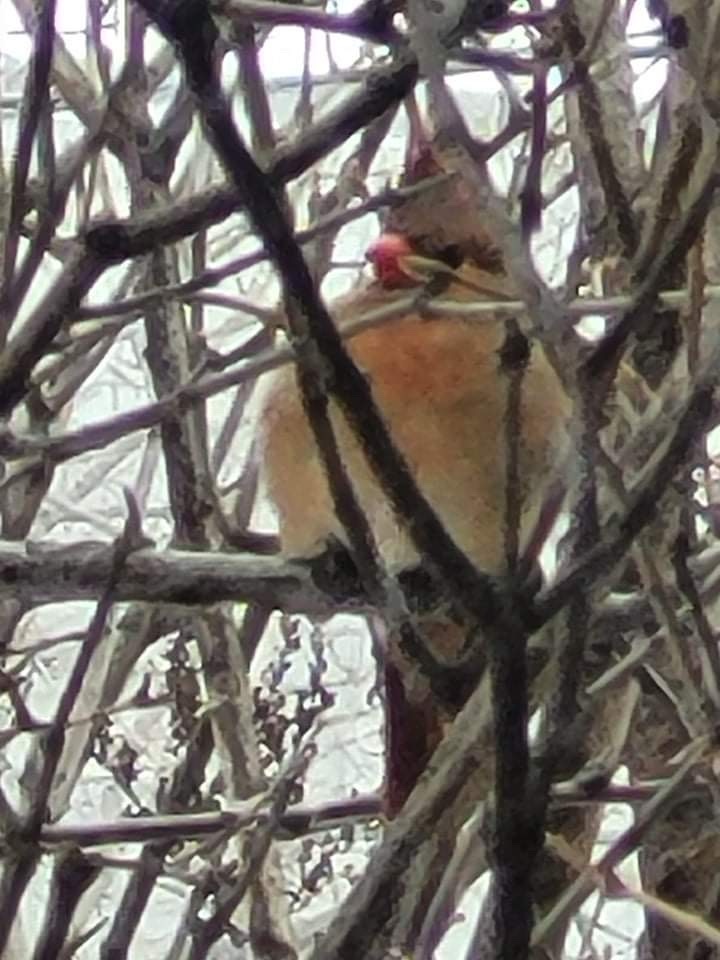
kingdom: Animalia
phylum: Chordata
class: Aves
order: Passeriformes
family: Cardinalidae
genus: Cardinalis
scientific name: Cardinalis cardinalis
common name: Northern cardinal
